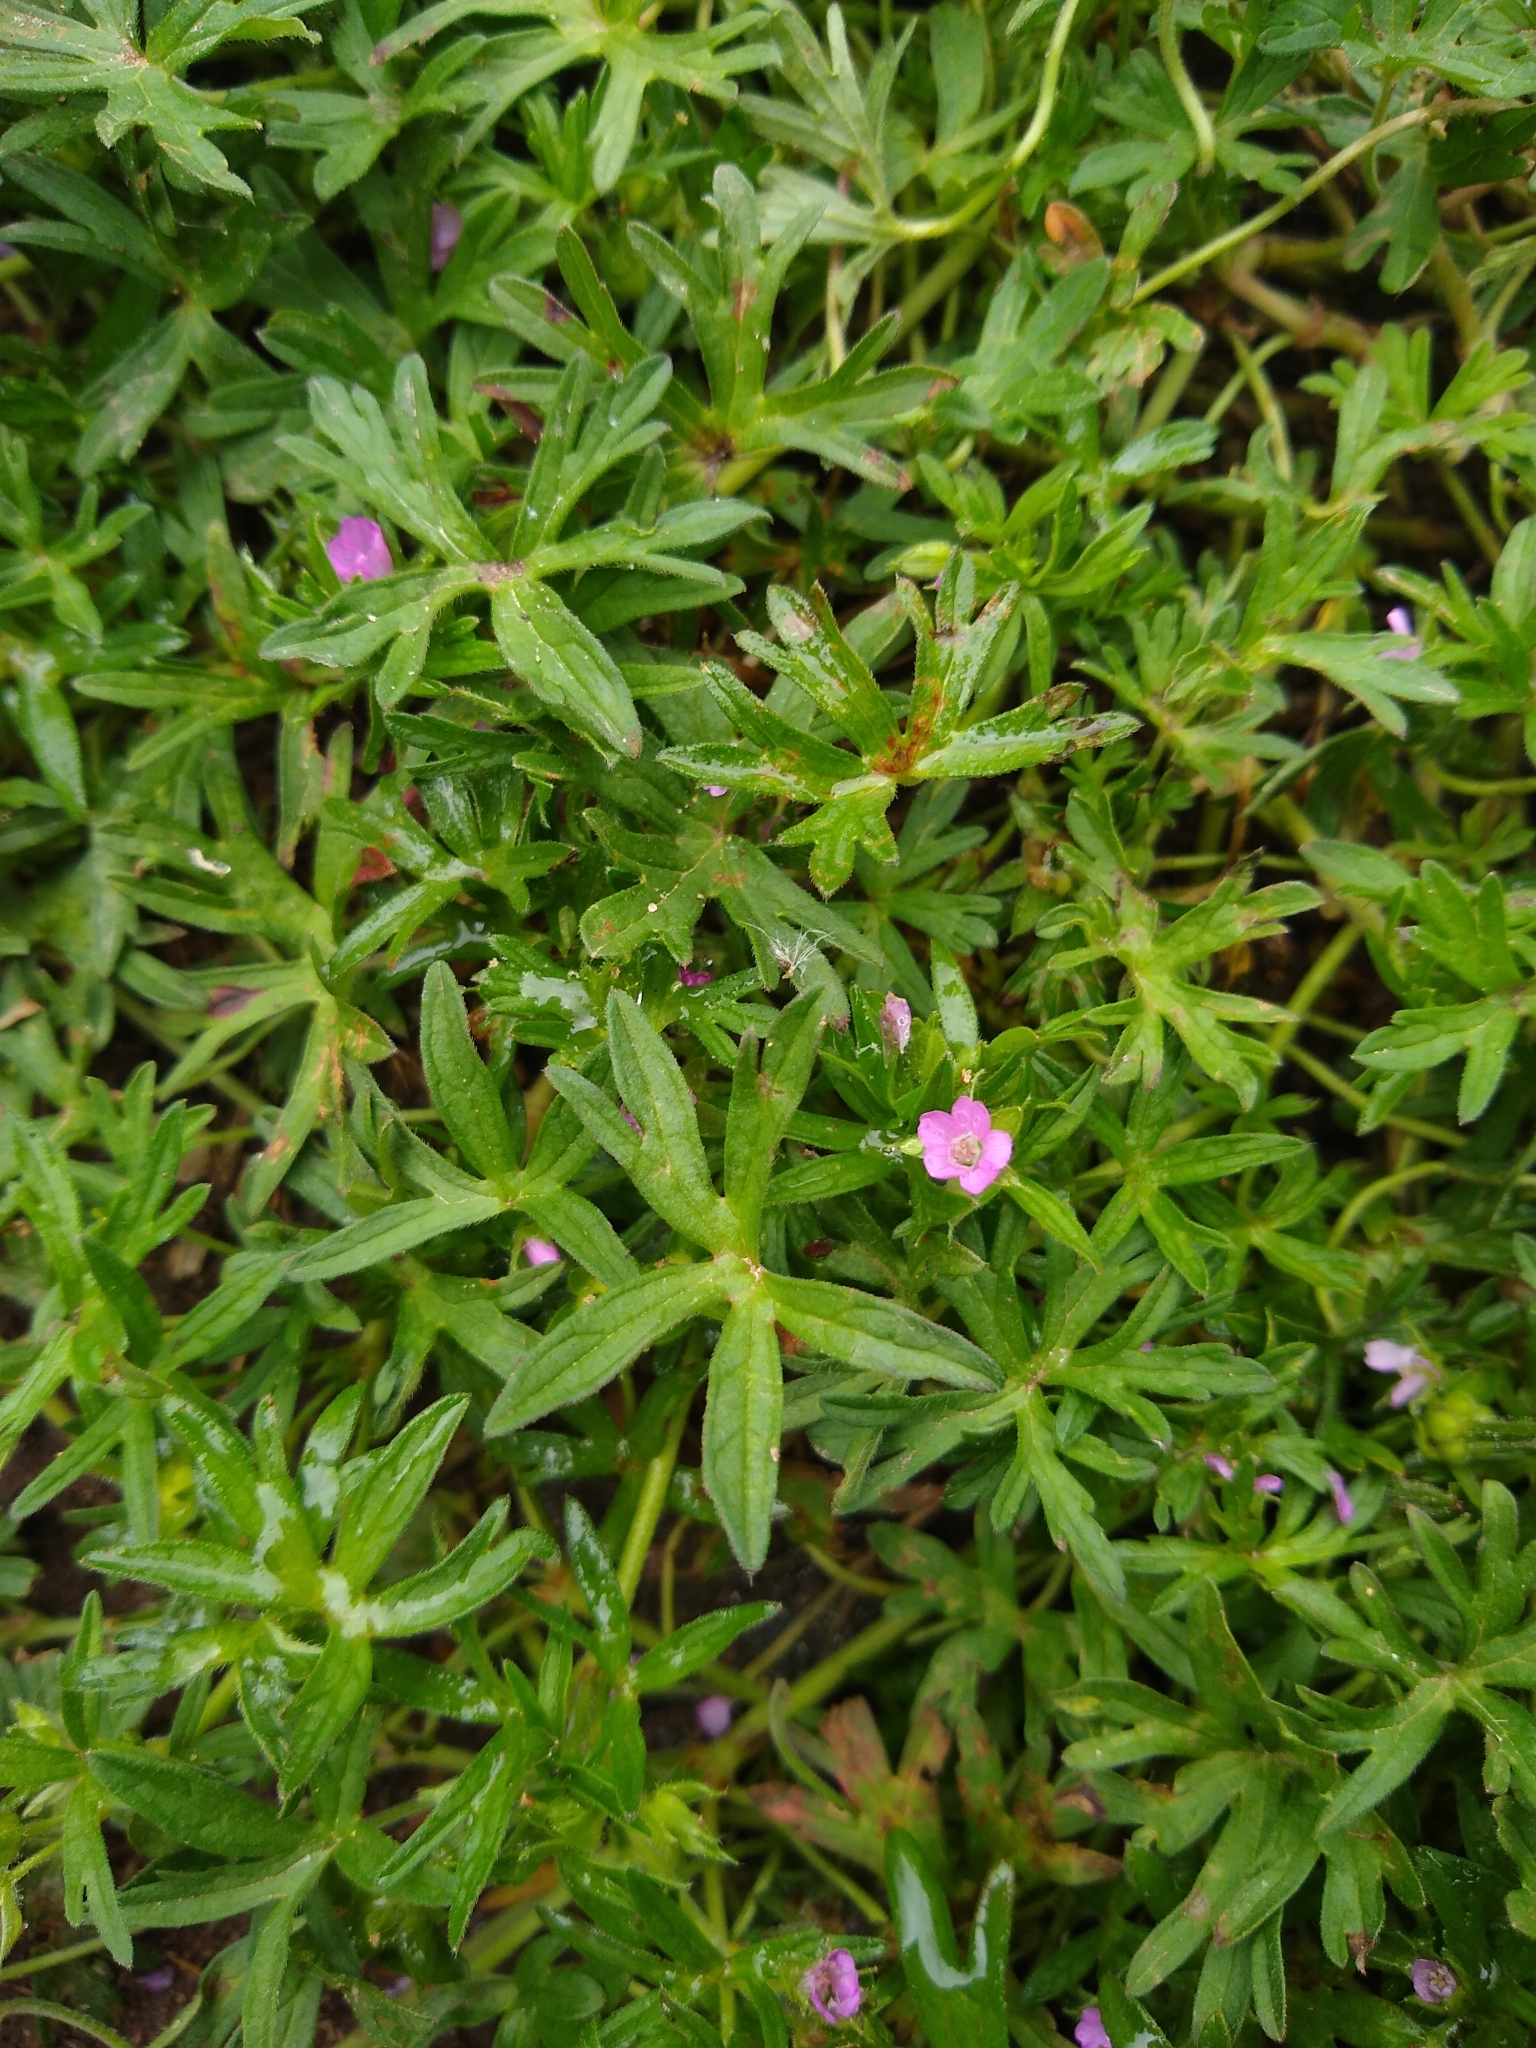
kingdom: Plantae
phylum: Tracheophyta
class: Magnoliopsida
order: Geraniales
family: Geraniaceae
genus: Geranium
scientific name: Geranium dissectum
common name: Cut-leaved crane's-bill
